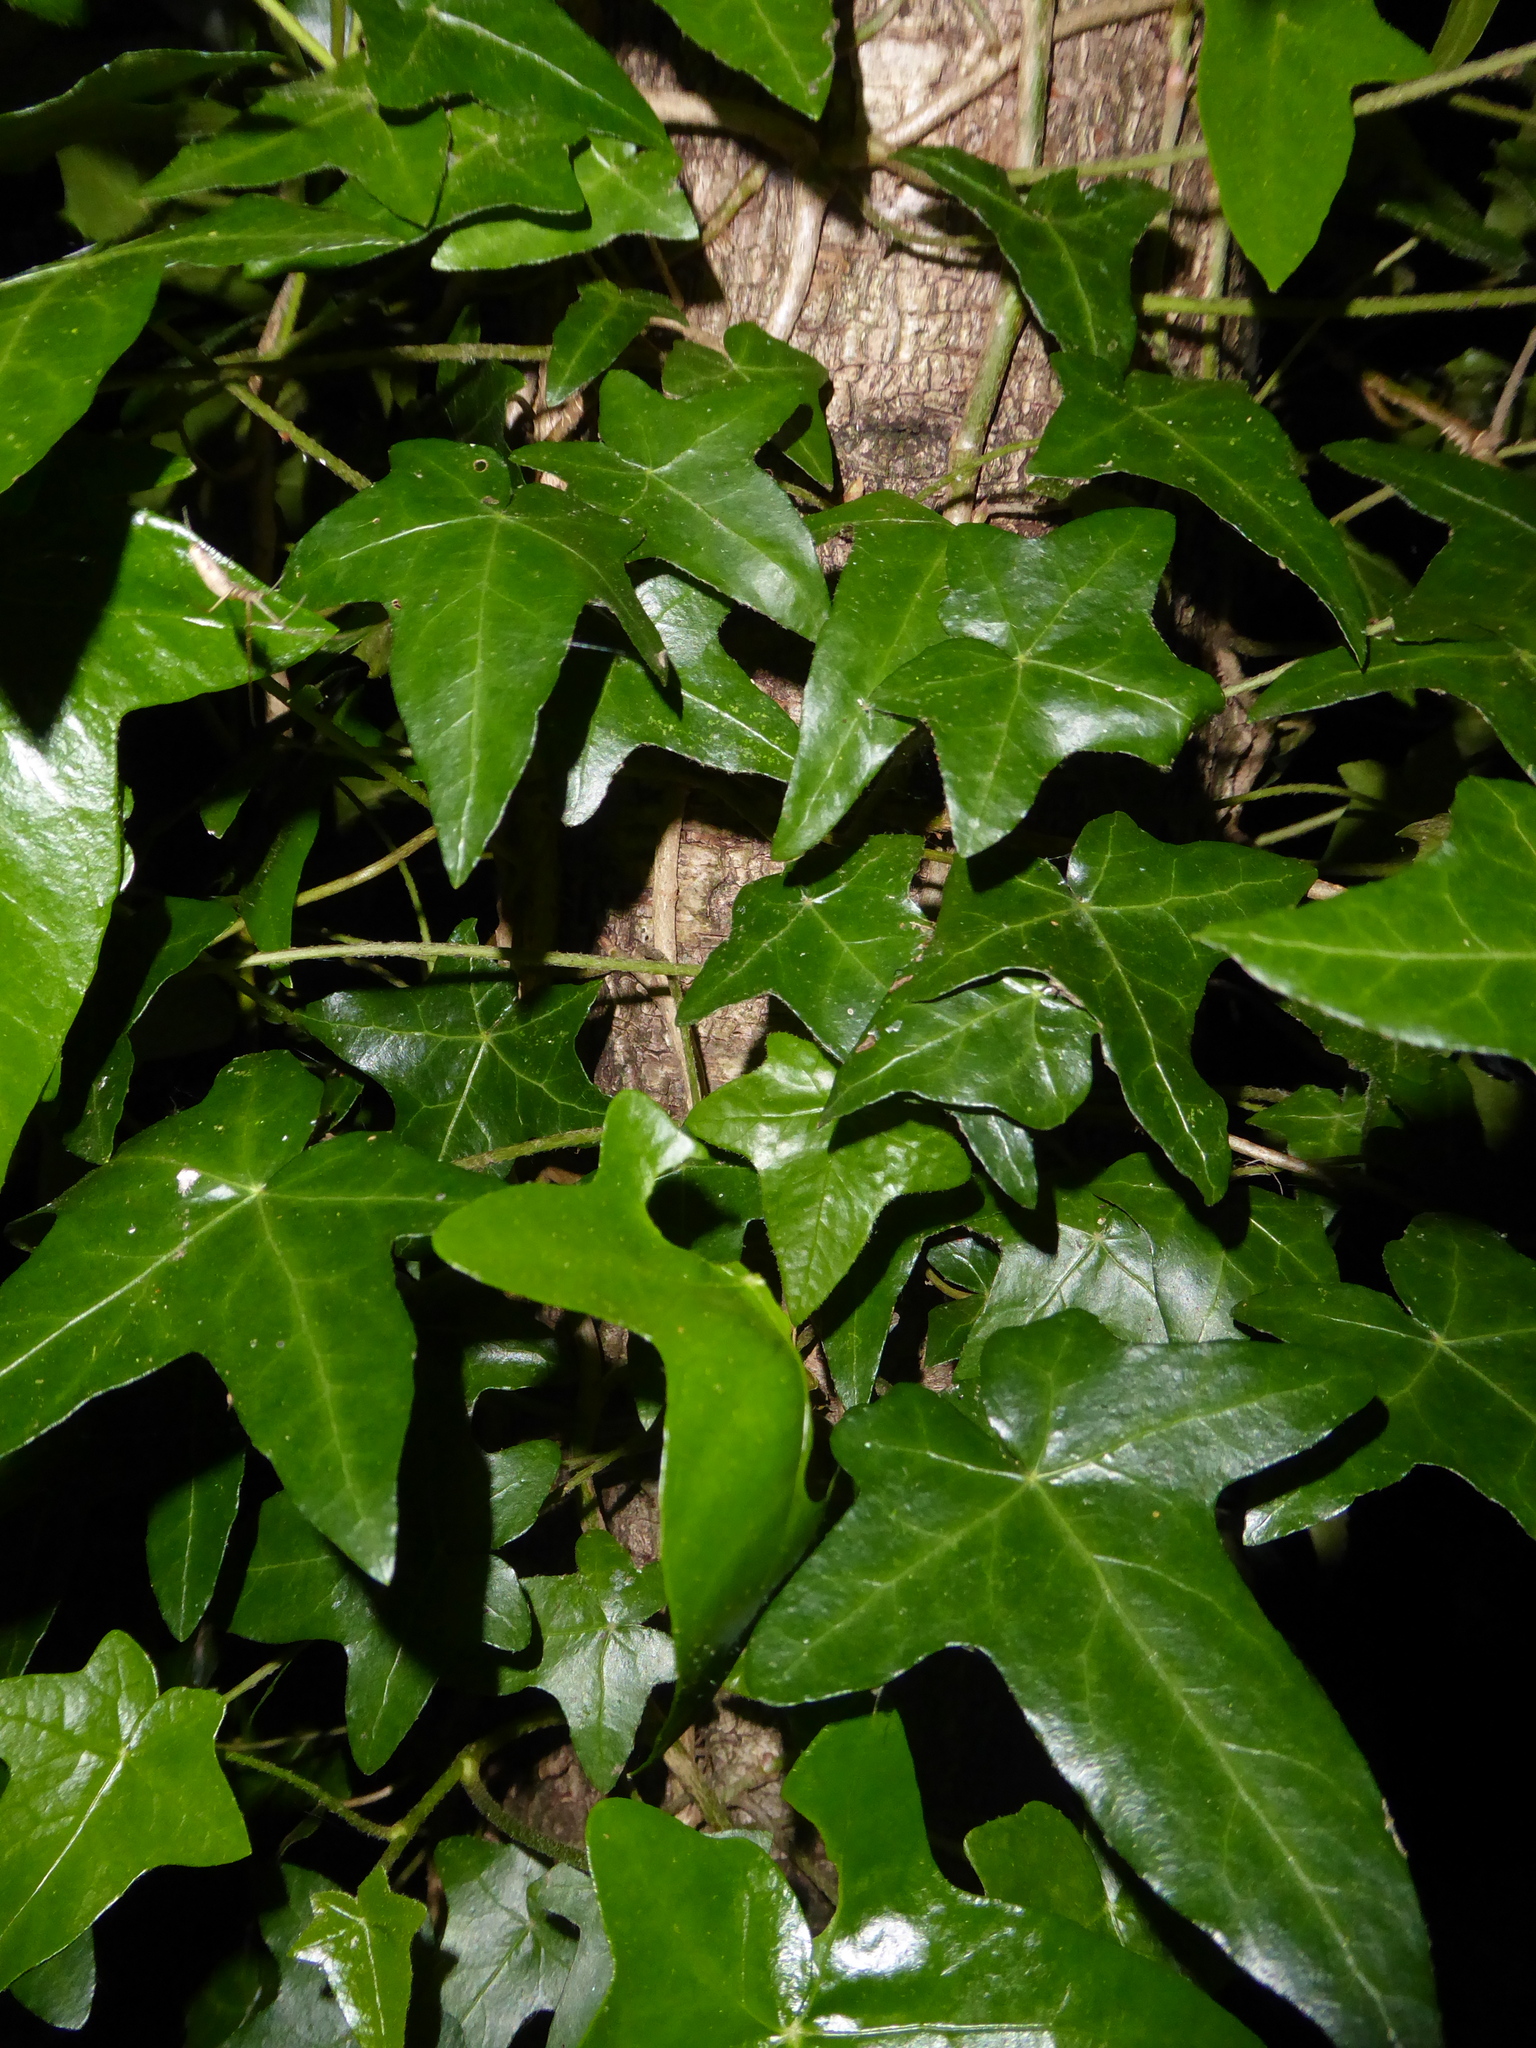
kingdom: Plantae
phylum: Tracheophyta
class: Magnoliopsida
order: Apiales
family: Araliaceae
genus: Hedera
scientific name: Hedera helix
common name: Ivy
